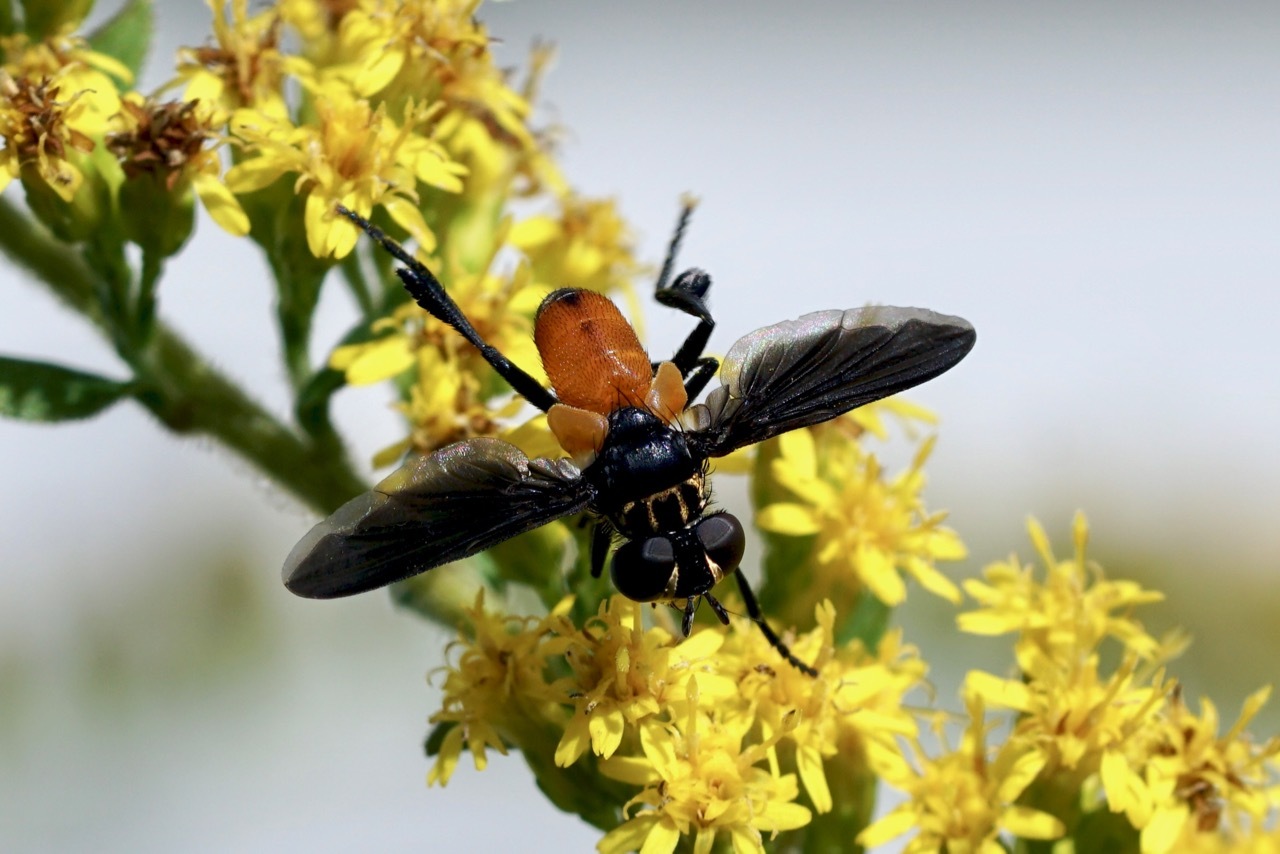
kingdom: Animalia
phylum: Arthropoda
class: Insecta
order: Diptera
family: Tachinidae
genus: Trichopoda
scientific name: Trichopoda pennipes
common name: Tachinid fly
